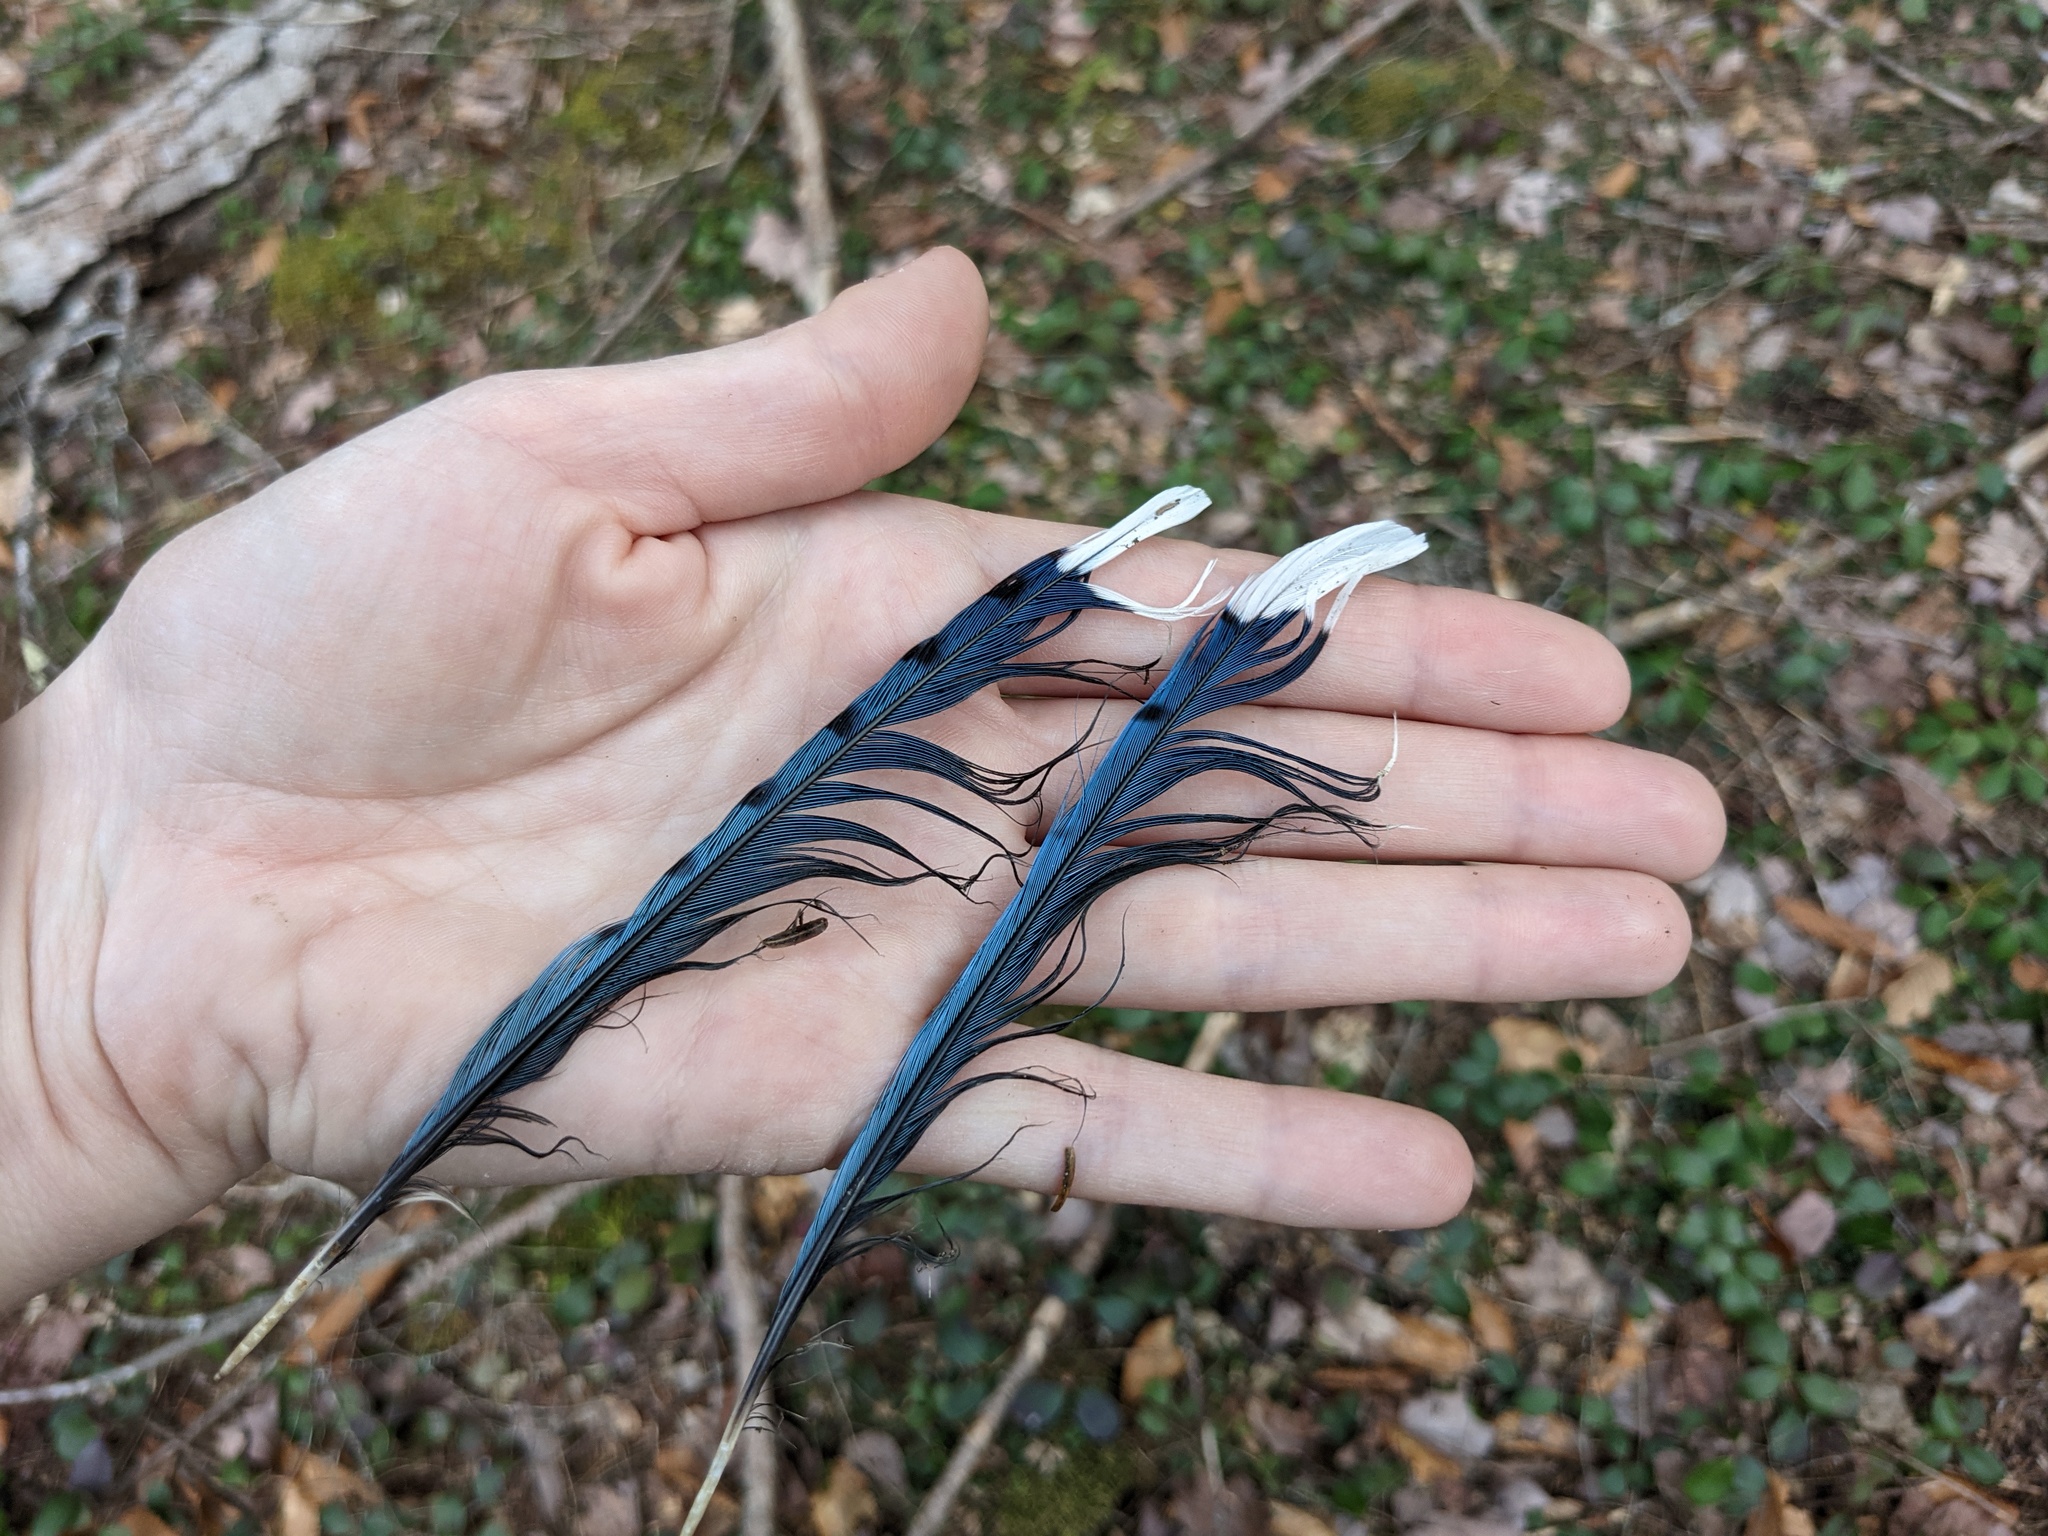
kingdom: Animalia
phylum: Chordata
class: Aves
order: Passeriformes
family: Corvidae
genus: Cyanocitta
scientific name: Cyanocitta cristata
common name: Blue jay
